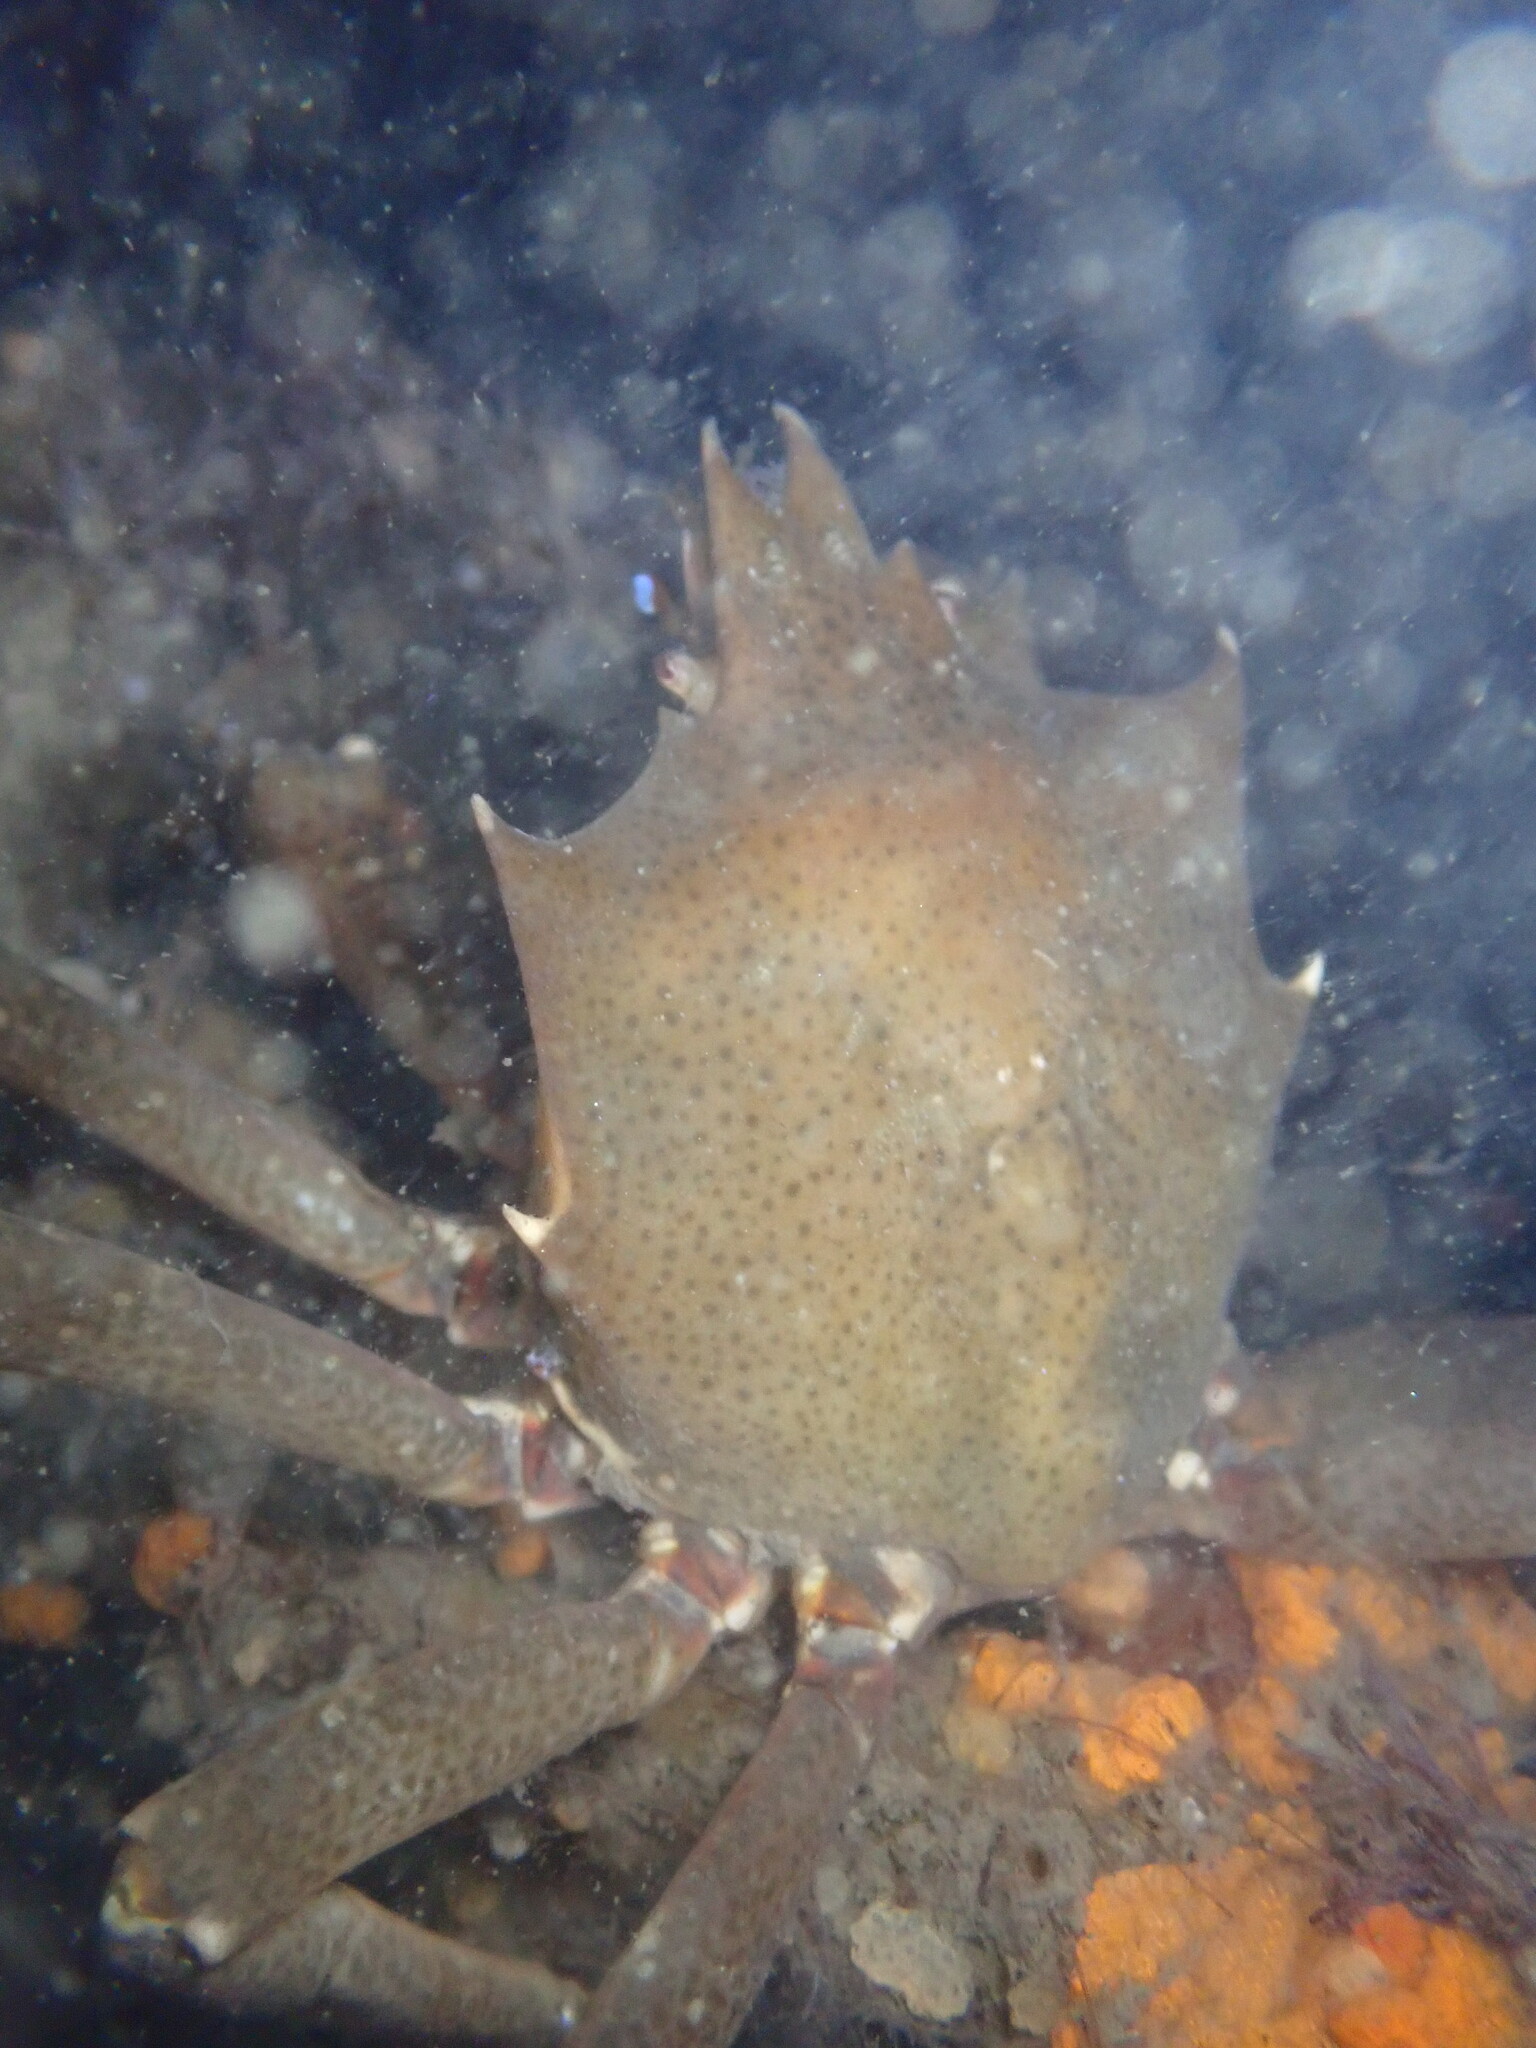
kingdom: Animalia
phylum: Arthropoda
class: Malacostraca
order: Decapoda
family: Epialtidae
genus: Pugettia
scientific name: Pugettia producta
